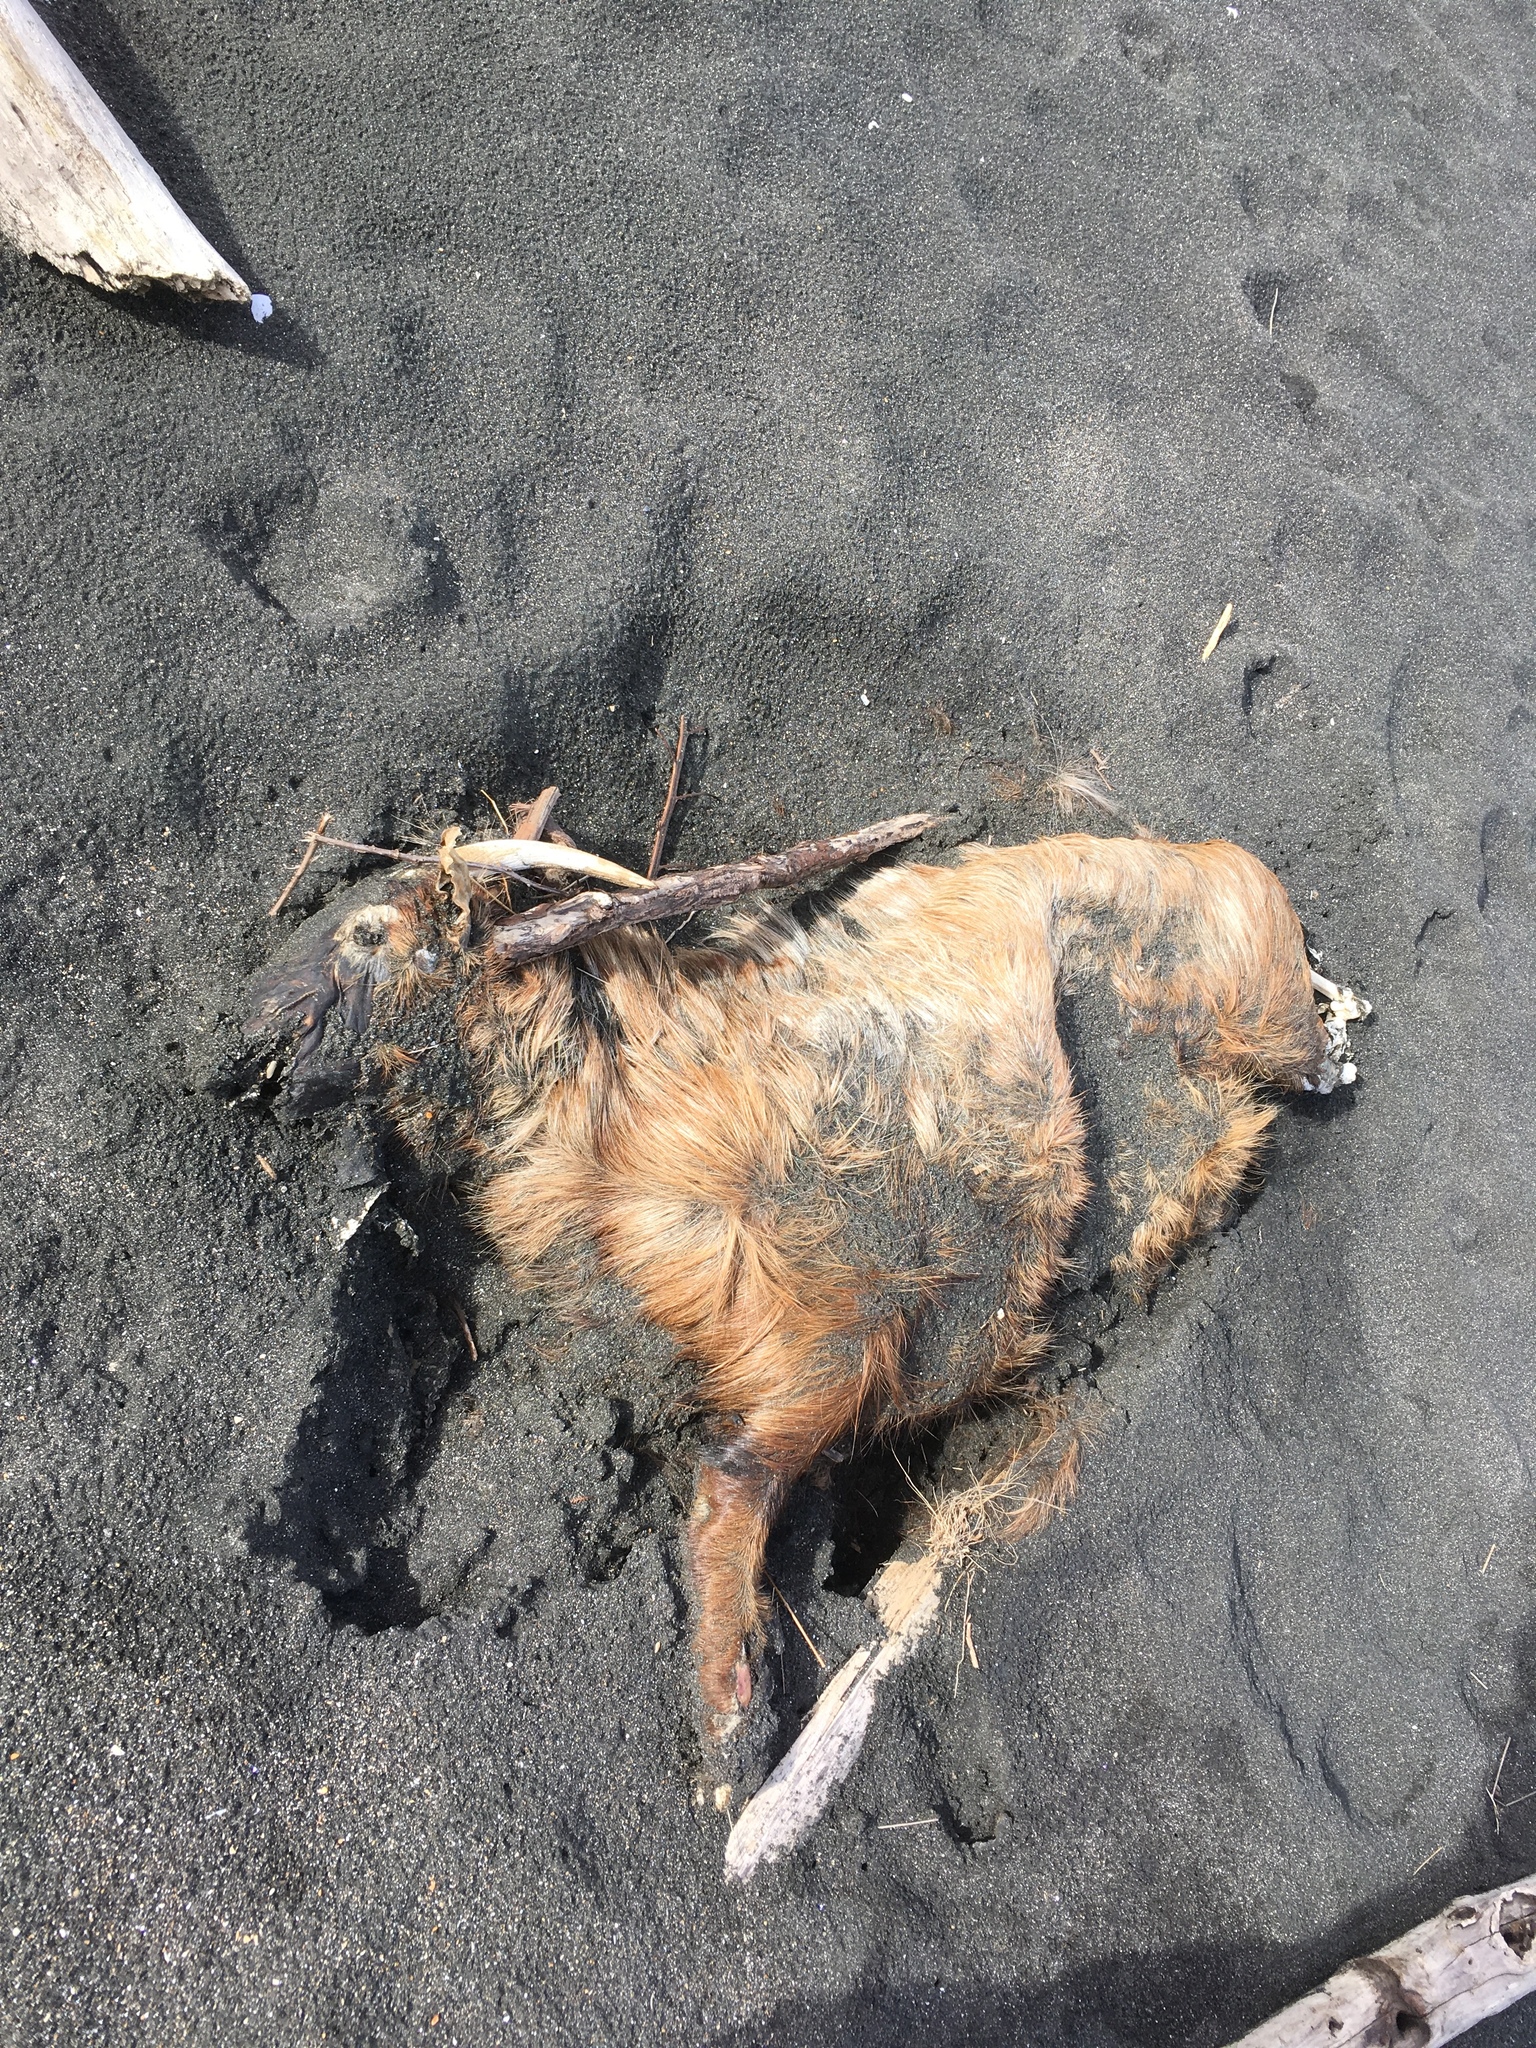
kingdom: Animalia
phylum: Chordata
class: Mammalia
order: Artiodactyla
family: Bovidae
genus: Capra
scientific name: Capra hircus
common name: Domestic goat
